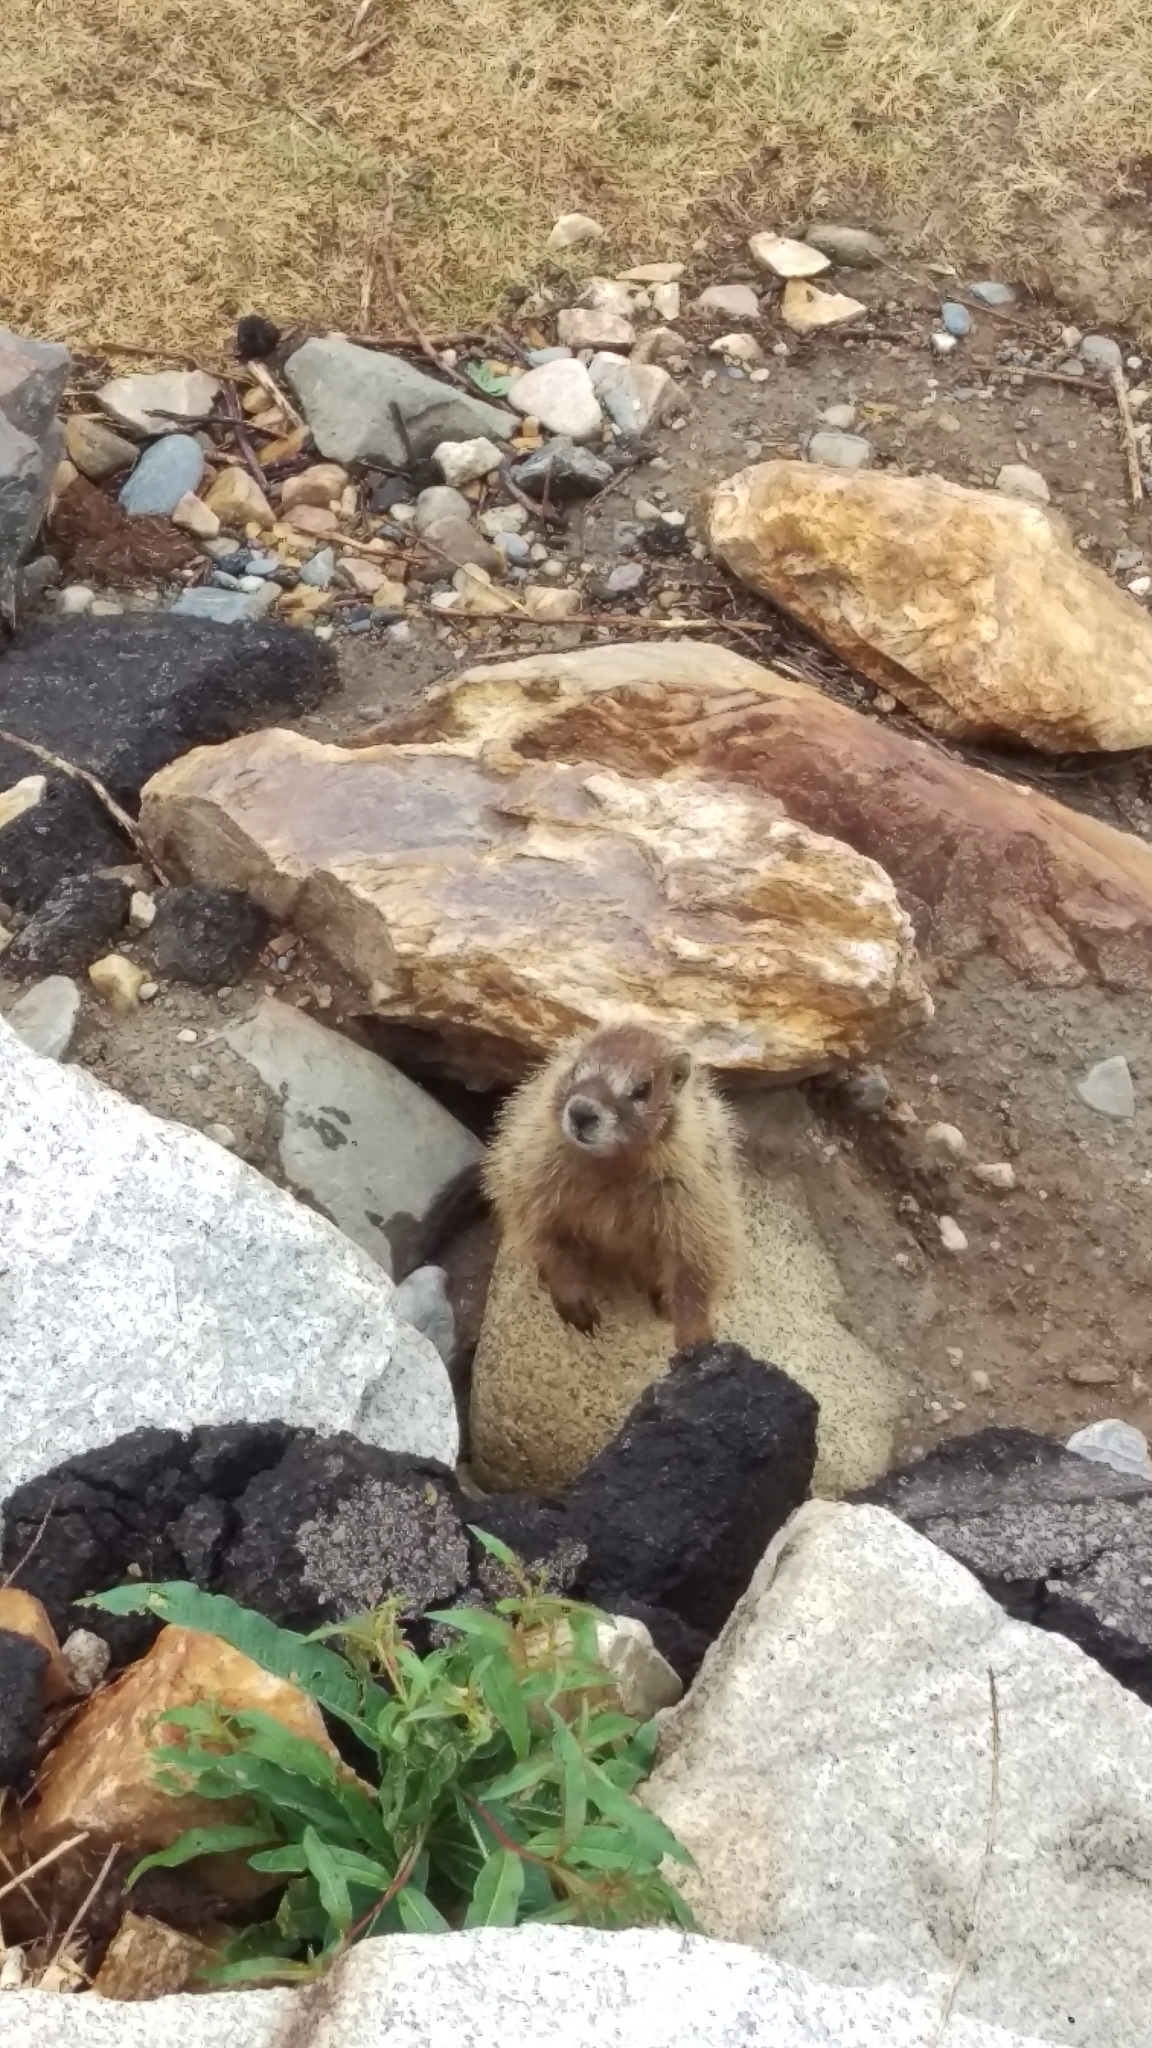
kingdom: Animalia
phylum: Chordata
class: Mammalia
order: Rodentia
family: Sciuridae
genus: Marmota
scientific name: Marmota flaviventris
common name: Yellow-bellied marmot
